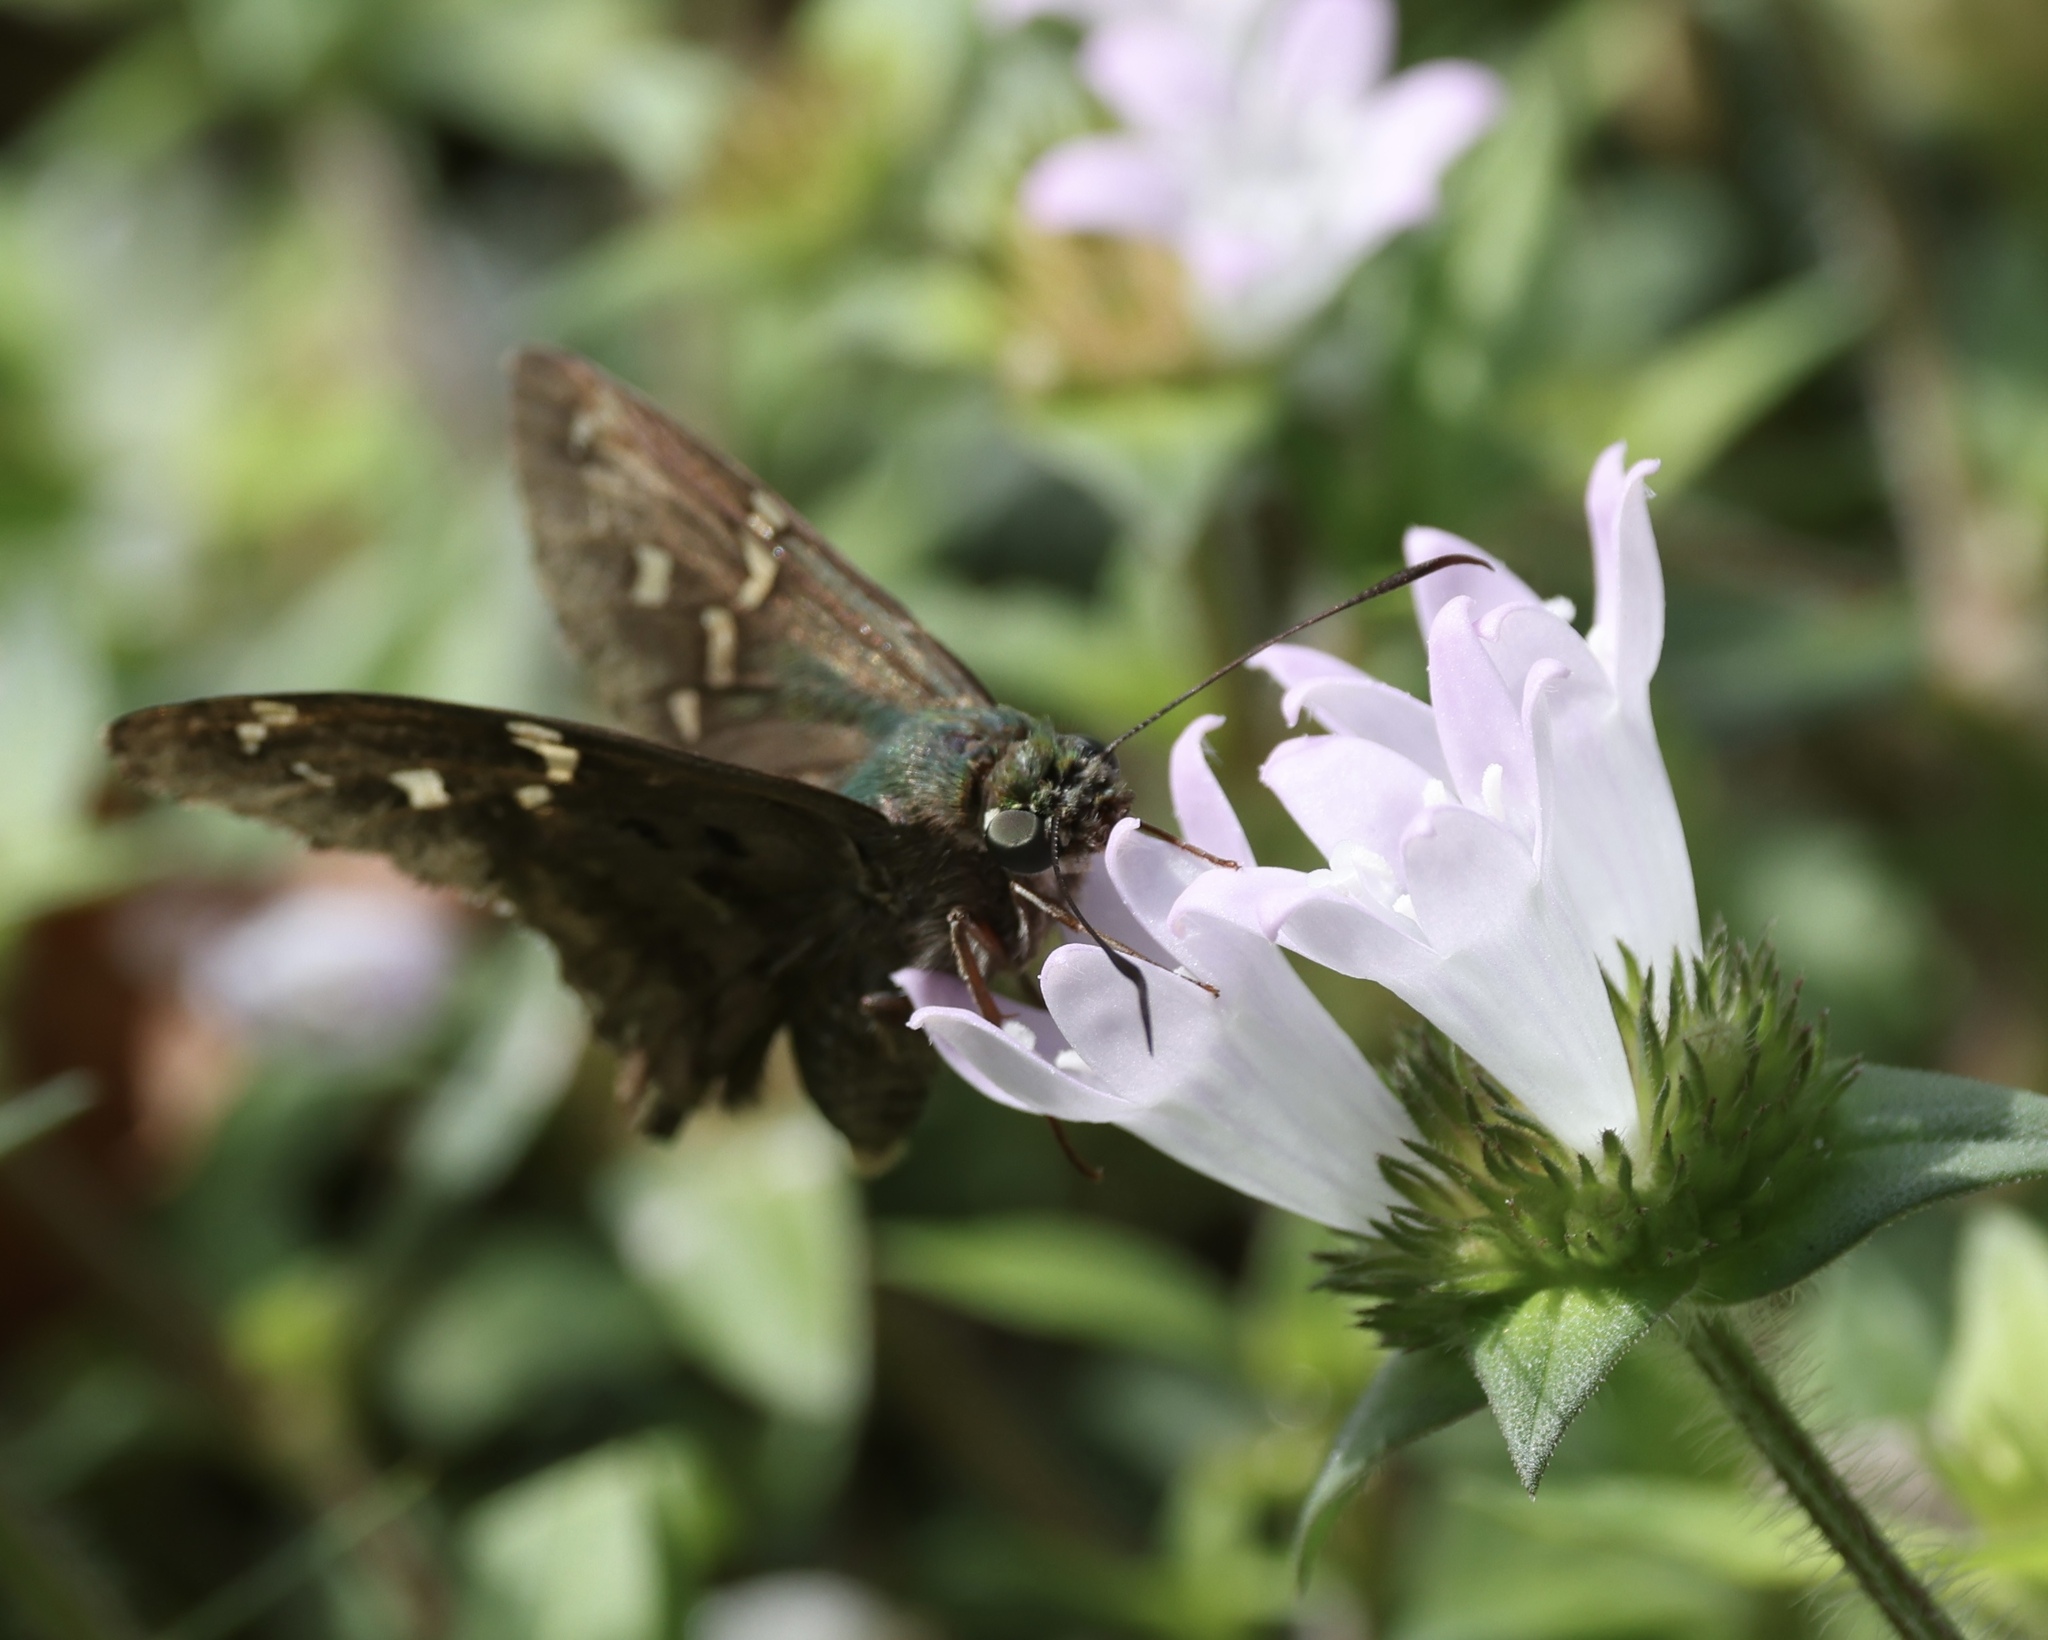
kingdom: Animalia
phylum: Arthropoda
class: Insecta
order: Lepidoptera
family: Hesperiidae
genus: Urbanus
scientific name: Urbanus proteus
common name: Long-tailed skipper
